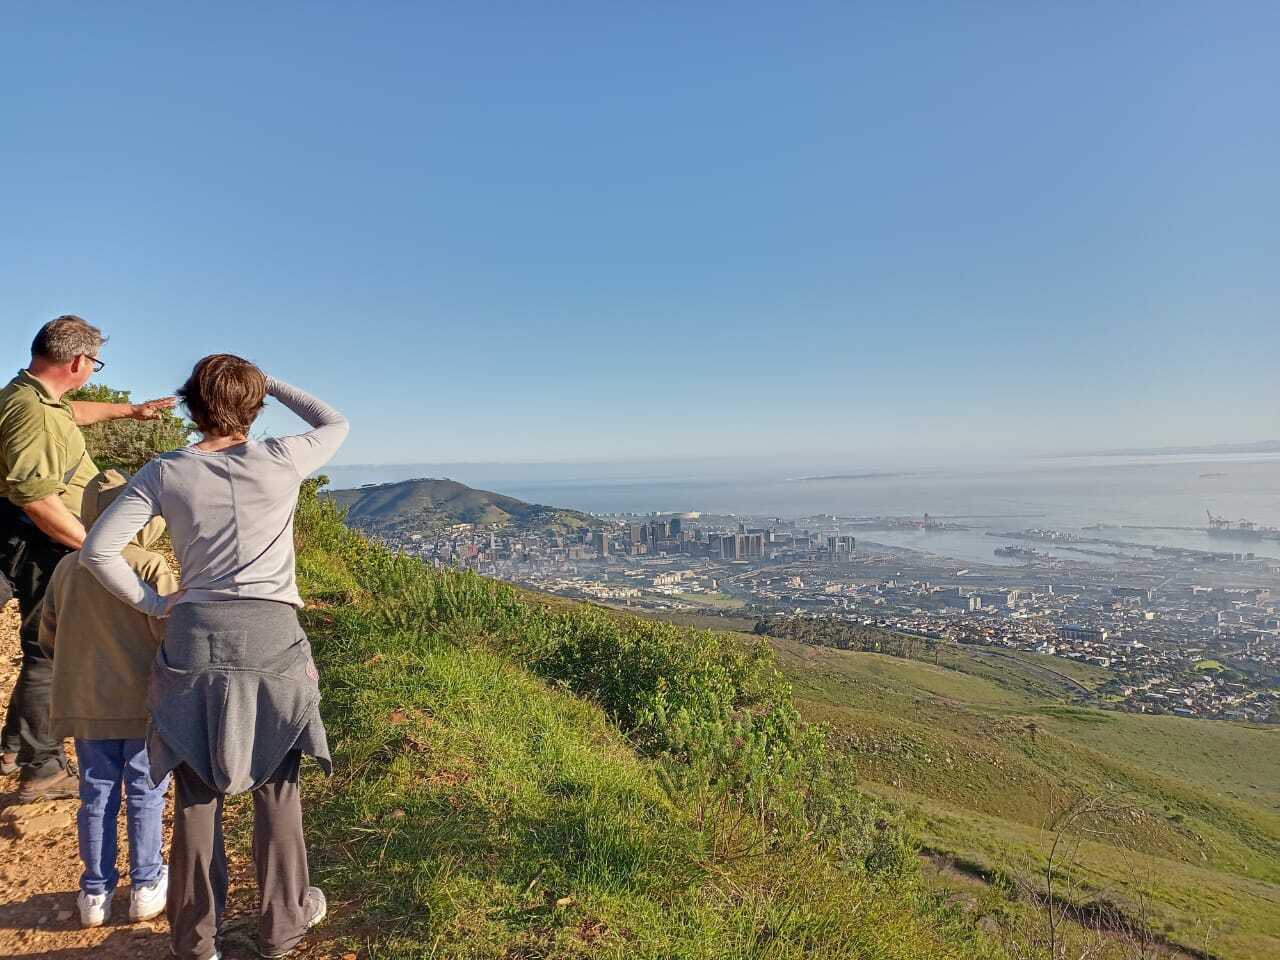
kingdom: Plantae
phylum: Tracheophyta
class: Magnoliopsida
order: Asterales
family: Asteraceae
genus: Osteospermum
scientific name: Osteospermum moniliferum
